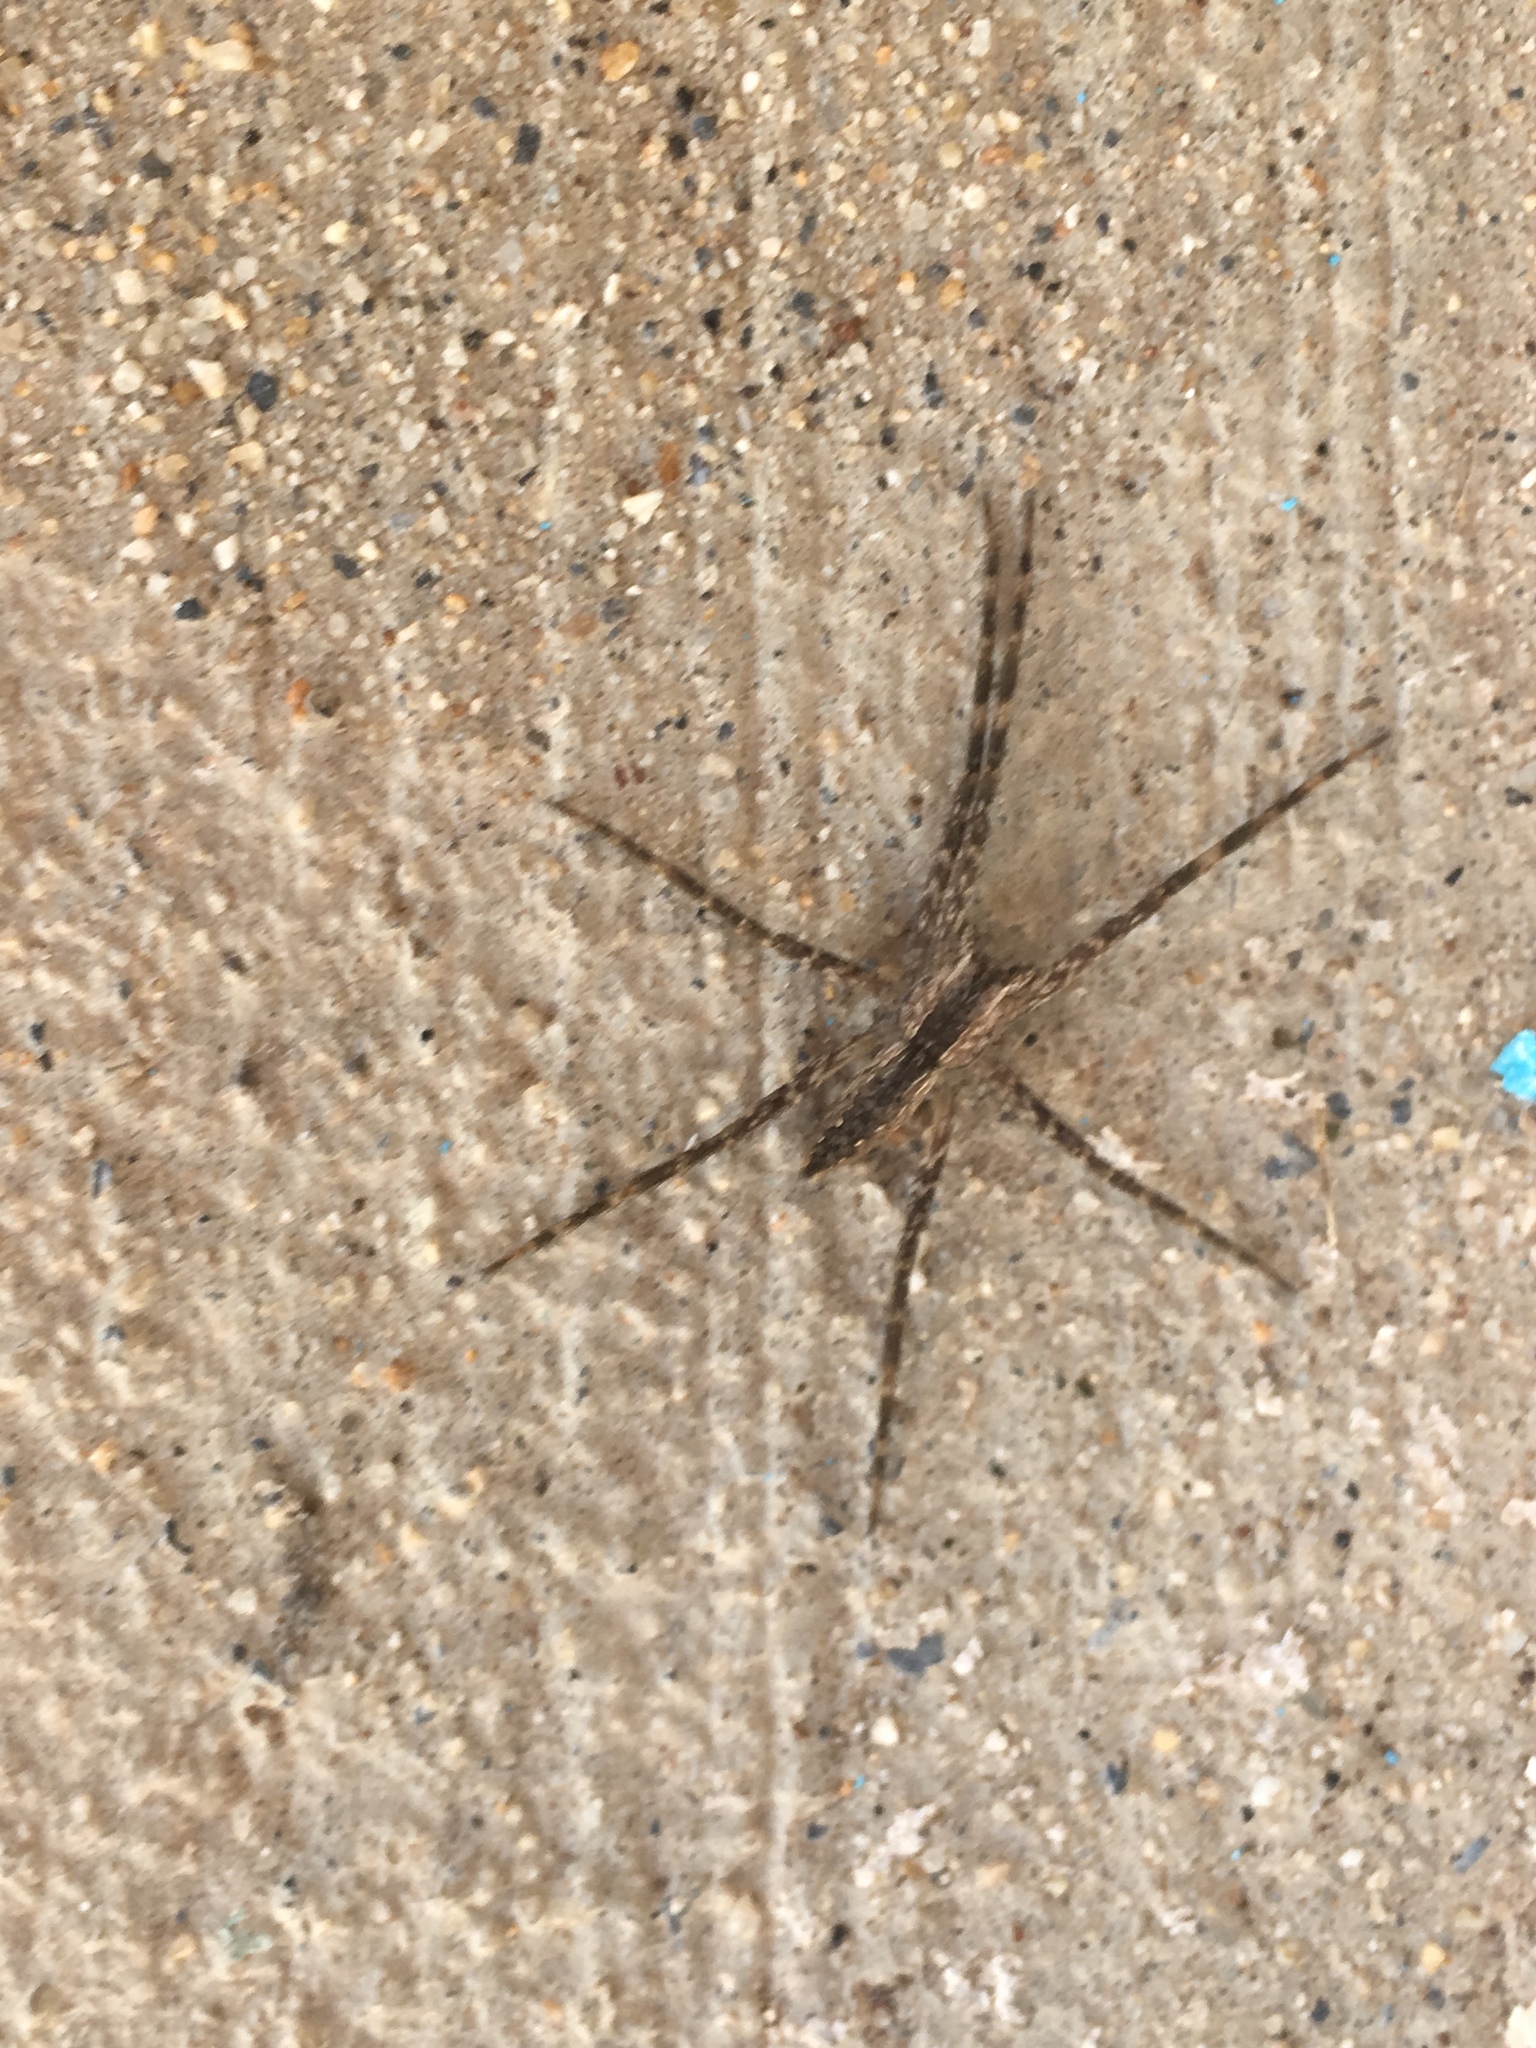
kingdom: Animalia
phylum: Arthropoda
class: Arachnida
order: Araneae
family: Pisauridae
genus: Pisaurina
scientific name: Pisaurina mira
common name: American nursery web spider
